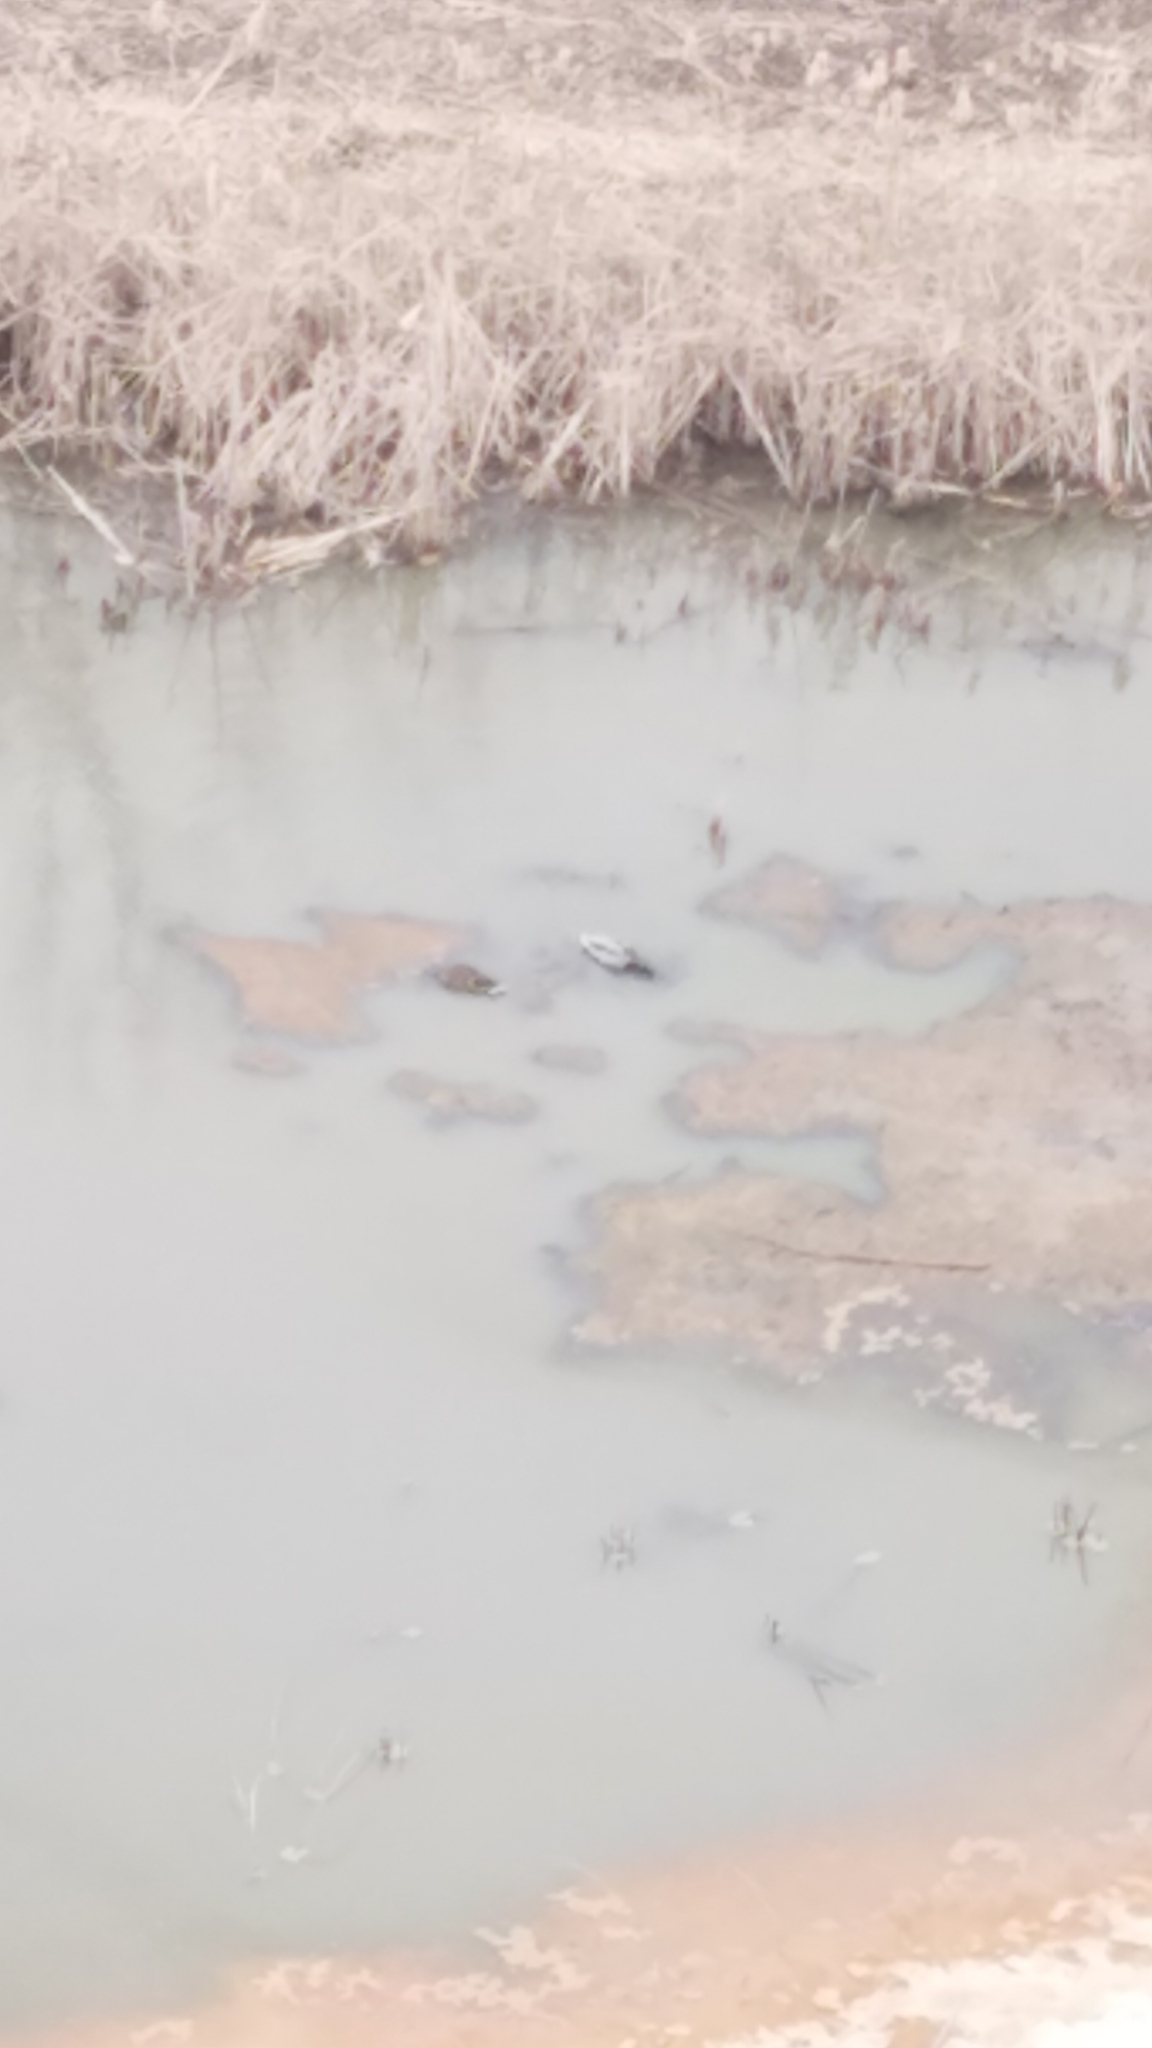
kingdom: Animalia
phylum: Chordata
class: Aves
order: Anseriformes
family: Anatidae
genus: Anas
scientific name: Anas platyrhynchos
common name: Mallard
